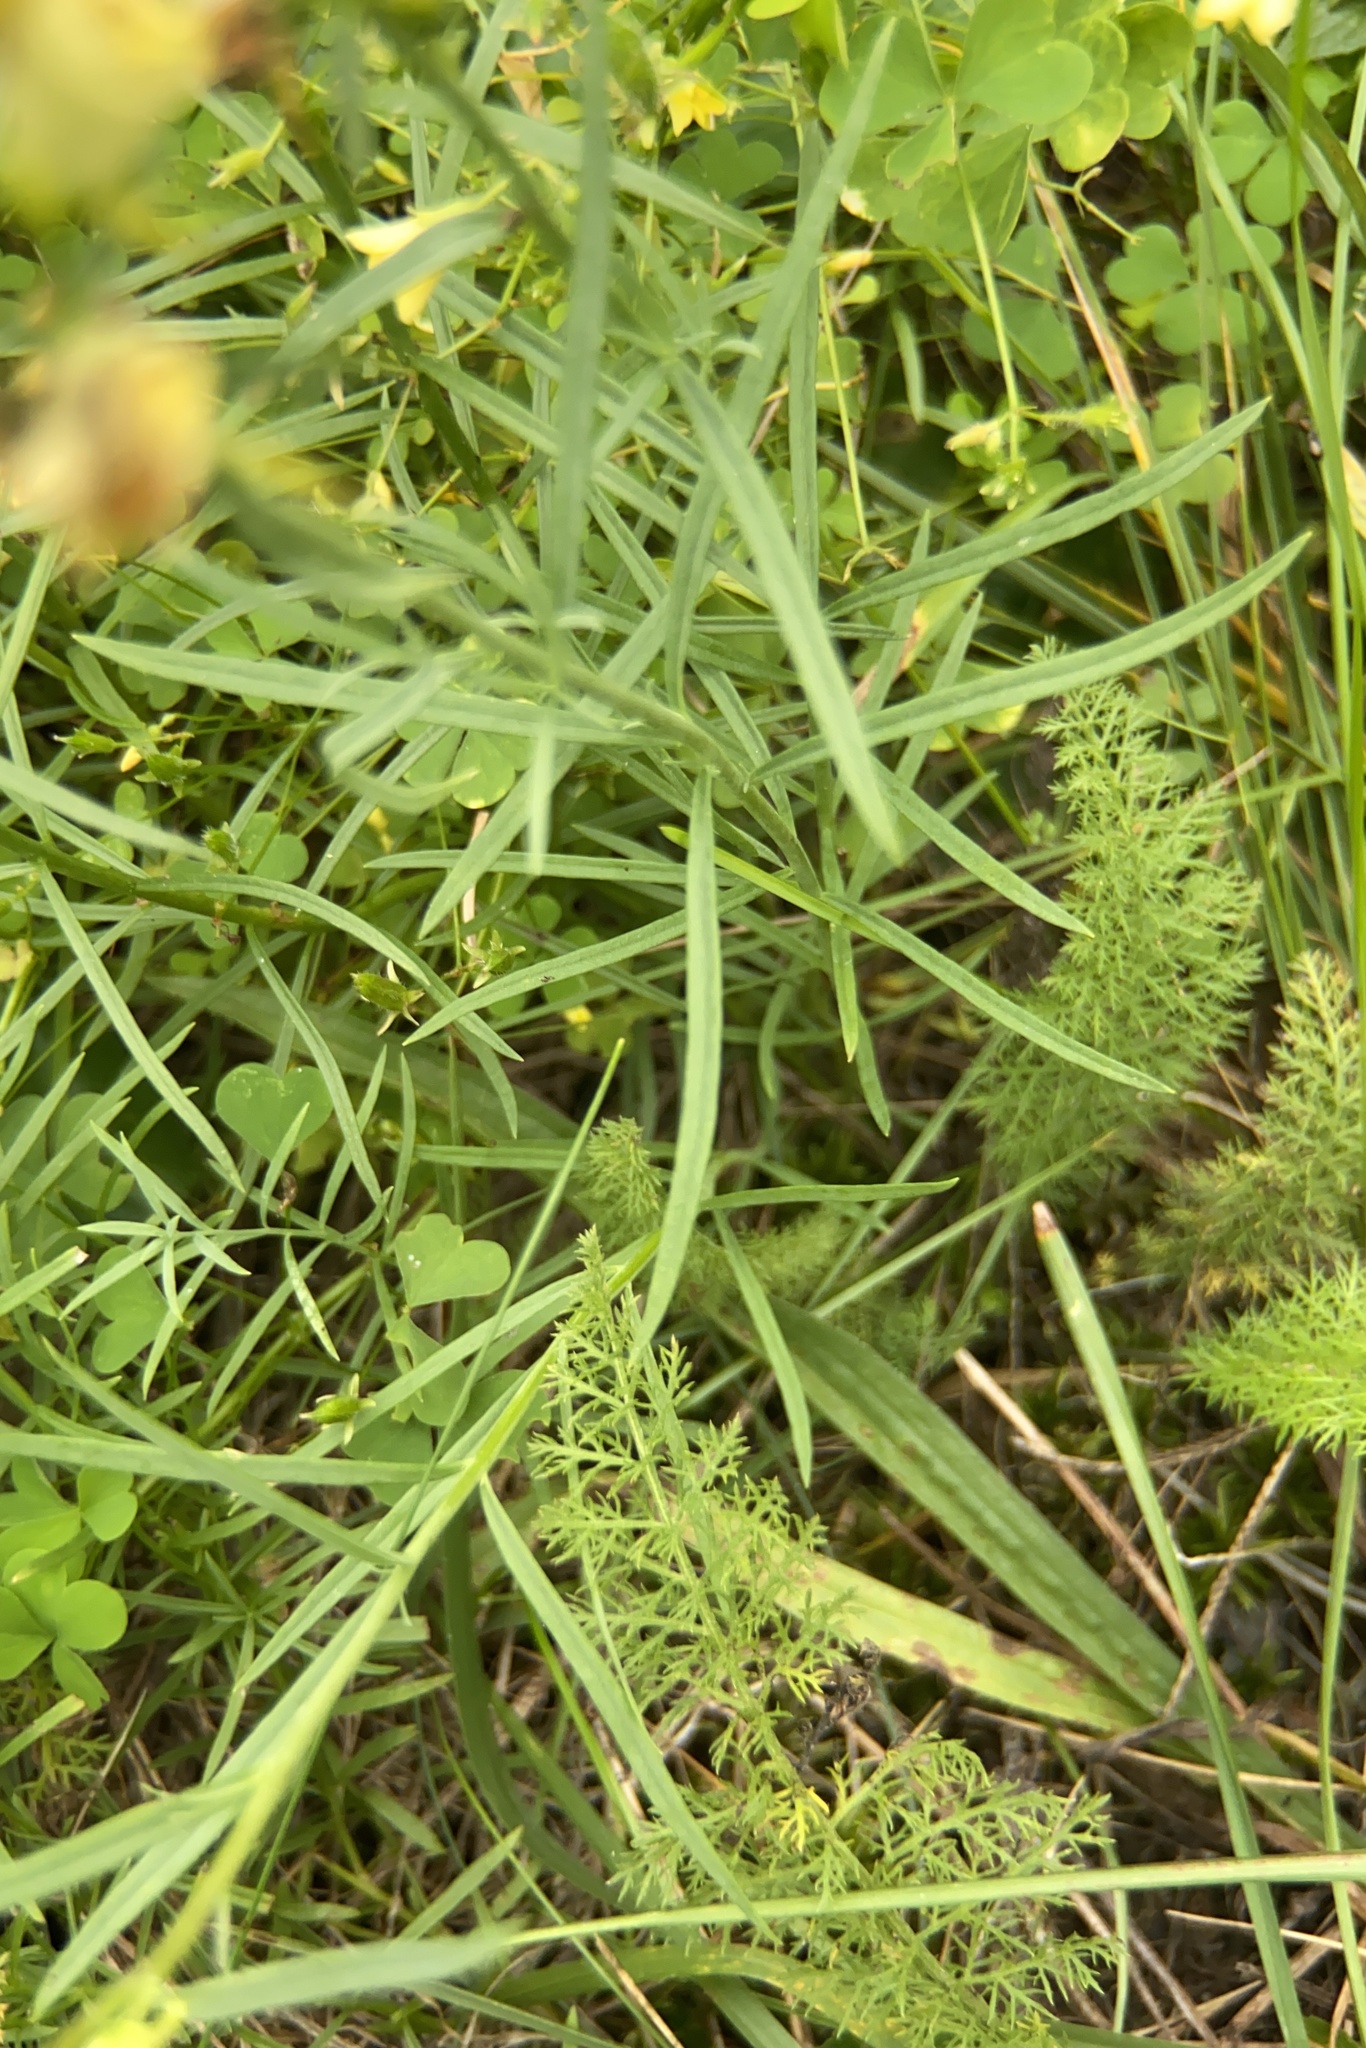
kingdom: Plantae
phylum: Tracheophyta
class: Magnoliopsida
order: Lamiales
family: Plantaginaceae
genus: Linaria
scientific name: Linaria vulgaris
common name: Butter and eggs
